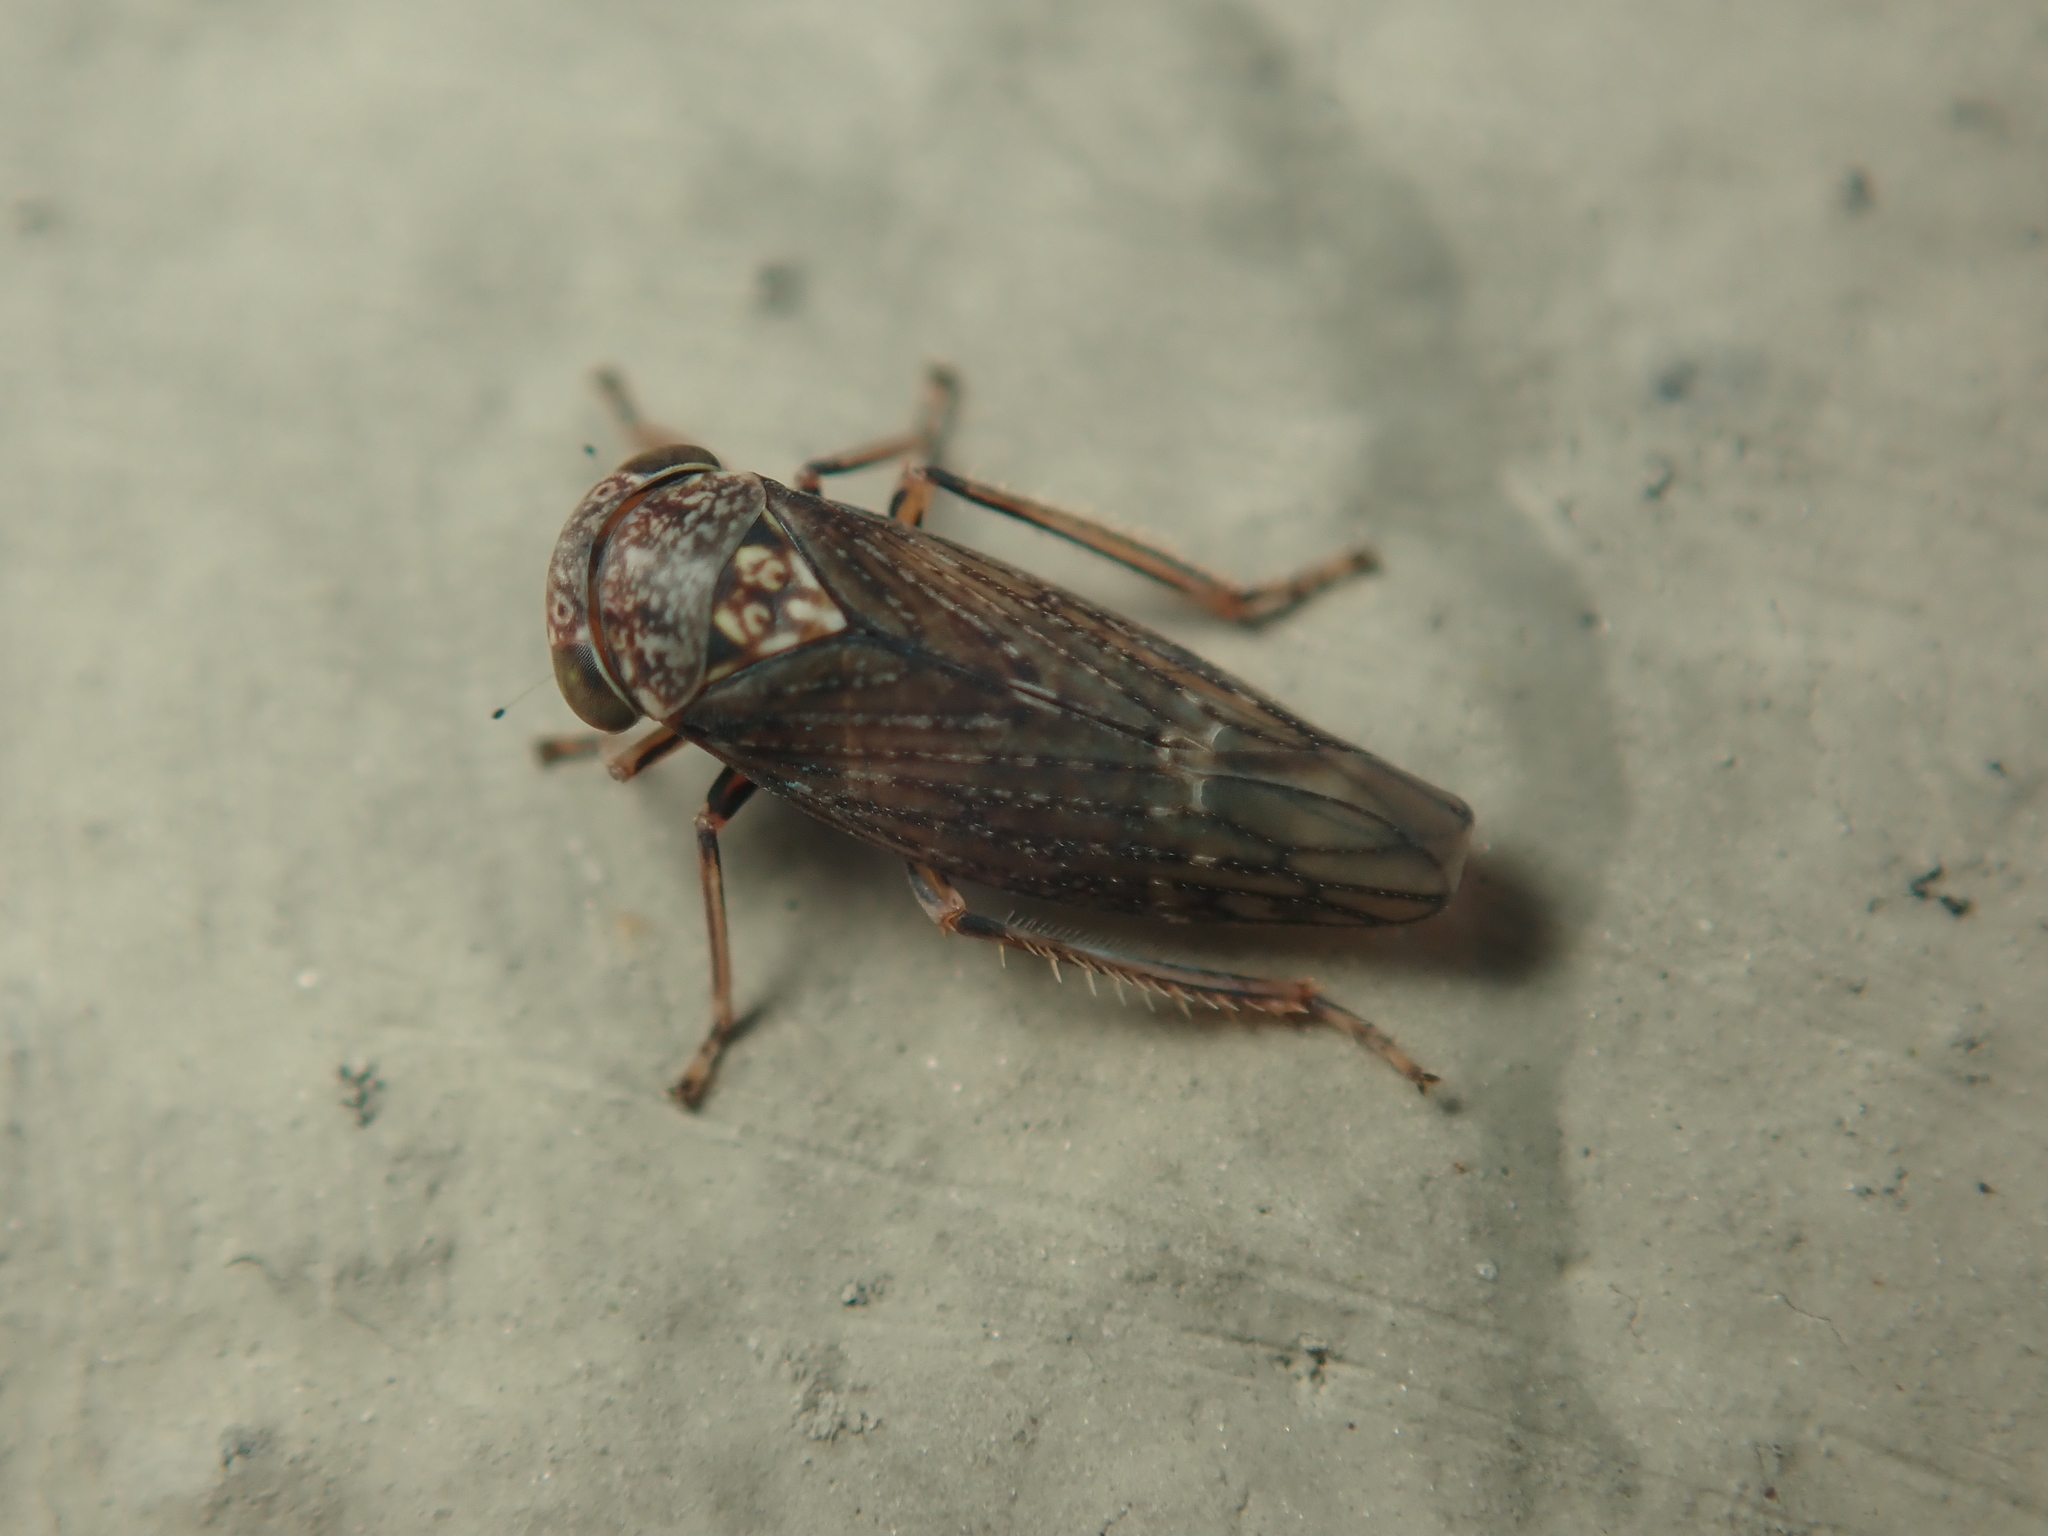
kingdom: Animalia
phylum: Arthropoda
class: Insecta
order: Hemiptera
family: Cicadellidae
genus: Acericerus
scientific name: Acericerus ribauti
